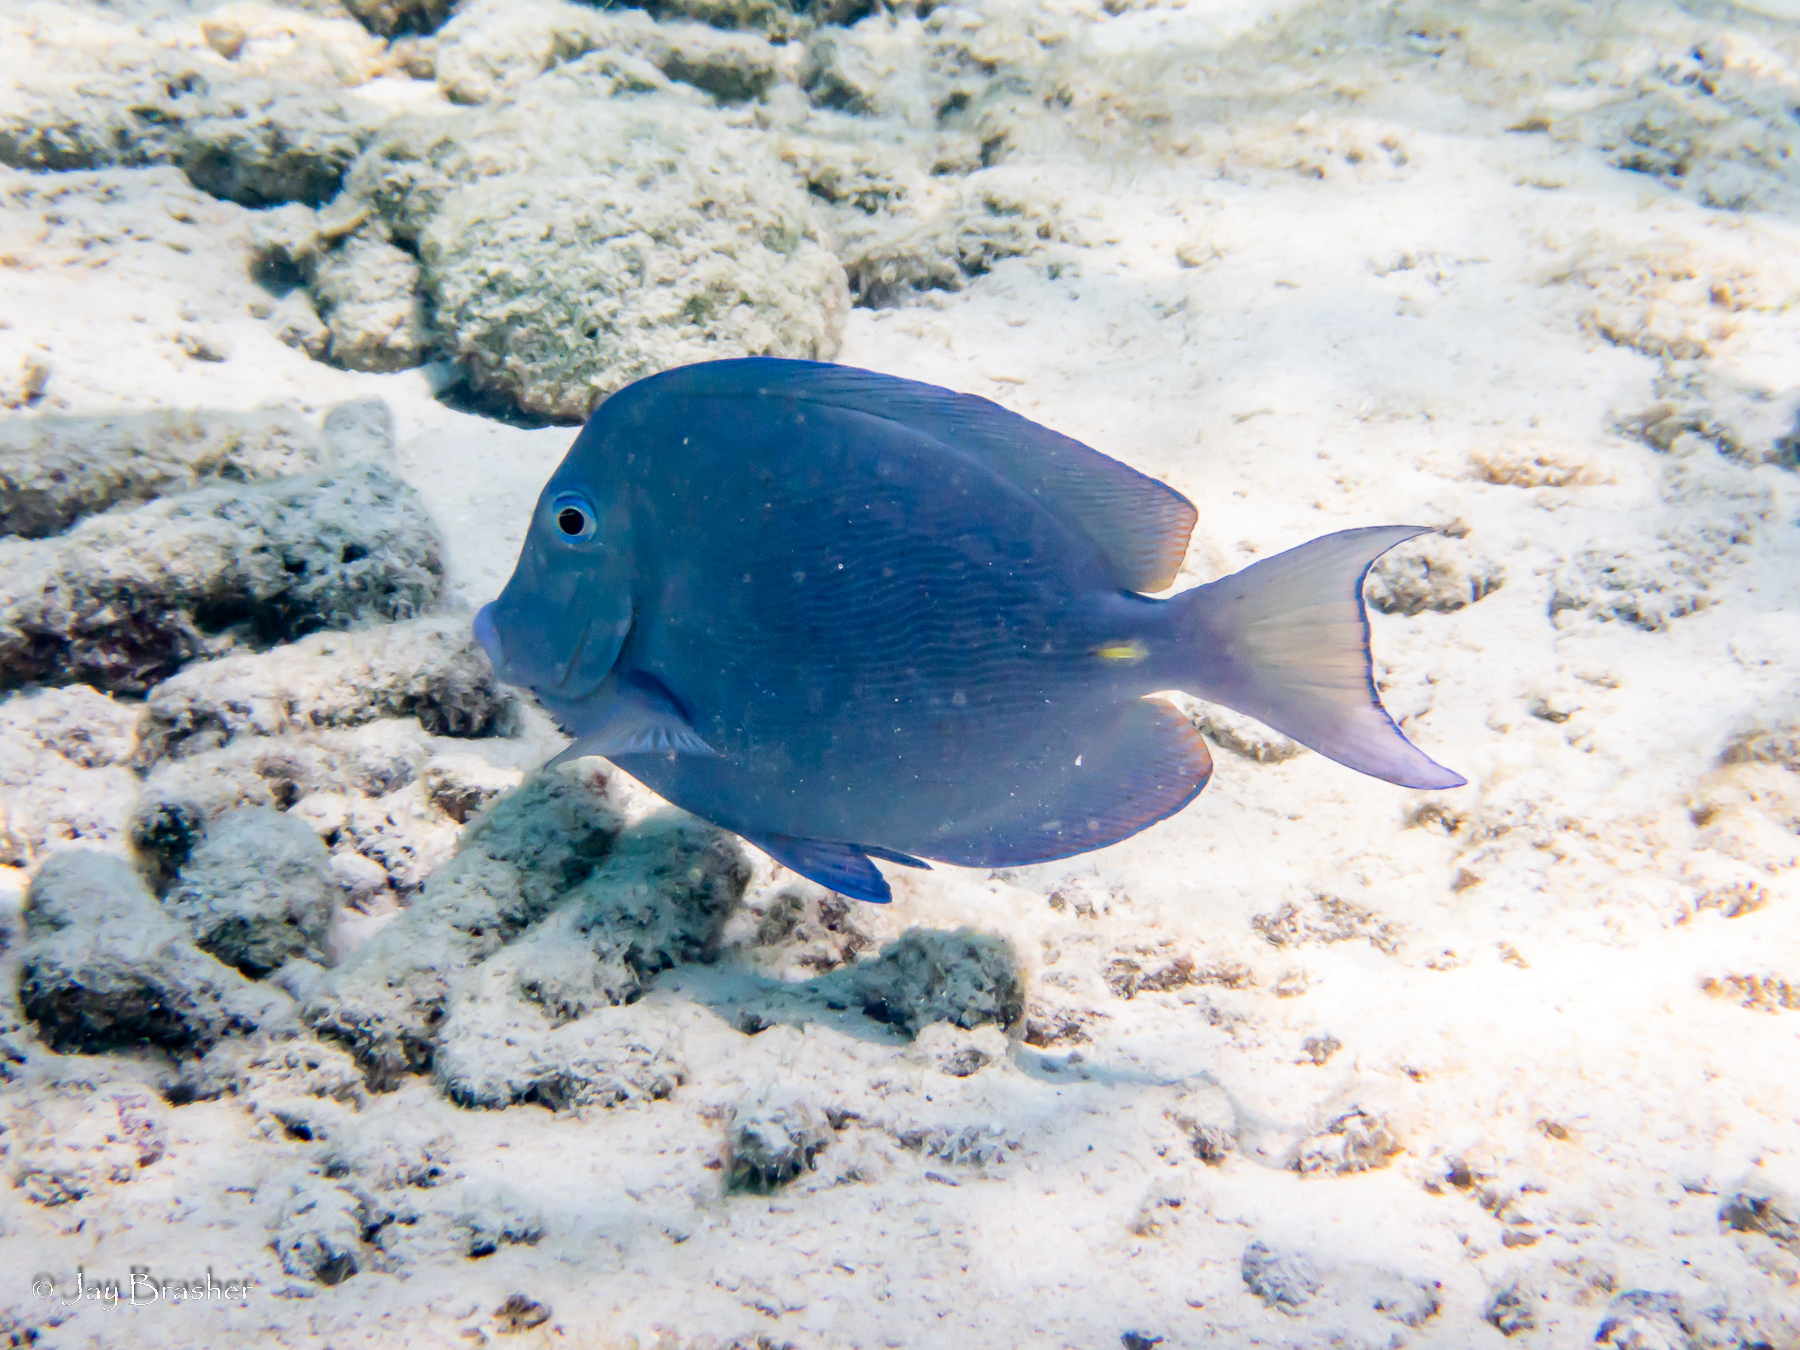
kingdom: Animalia
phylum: Chordata
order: Perciformes
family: Acanthuridae
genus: Acanthurus
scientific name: Acanthurus coeruleus
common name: Blue tang
